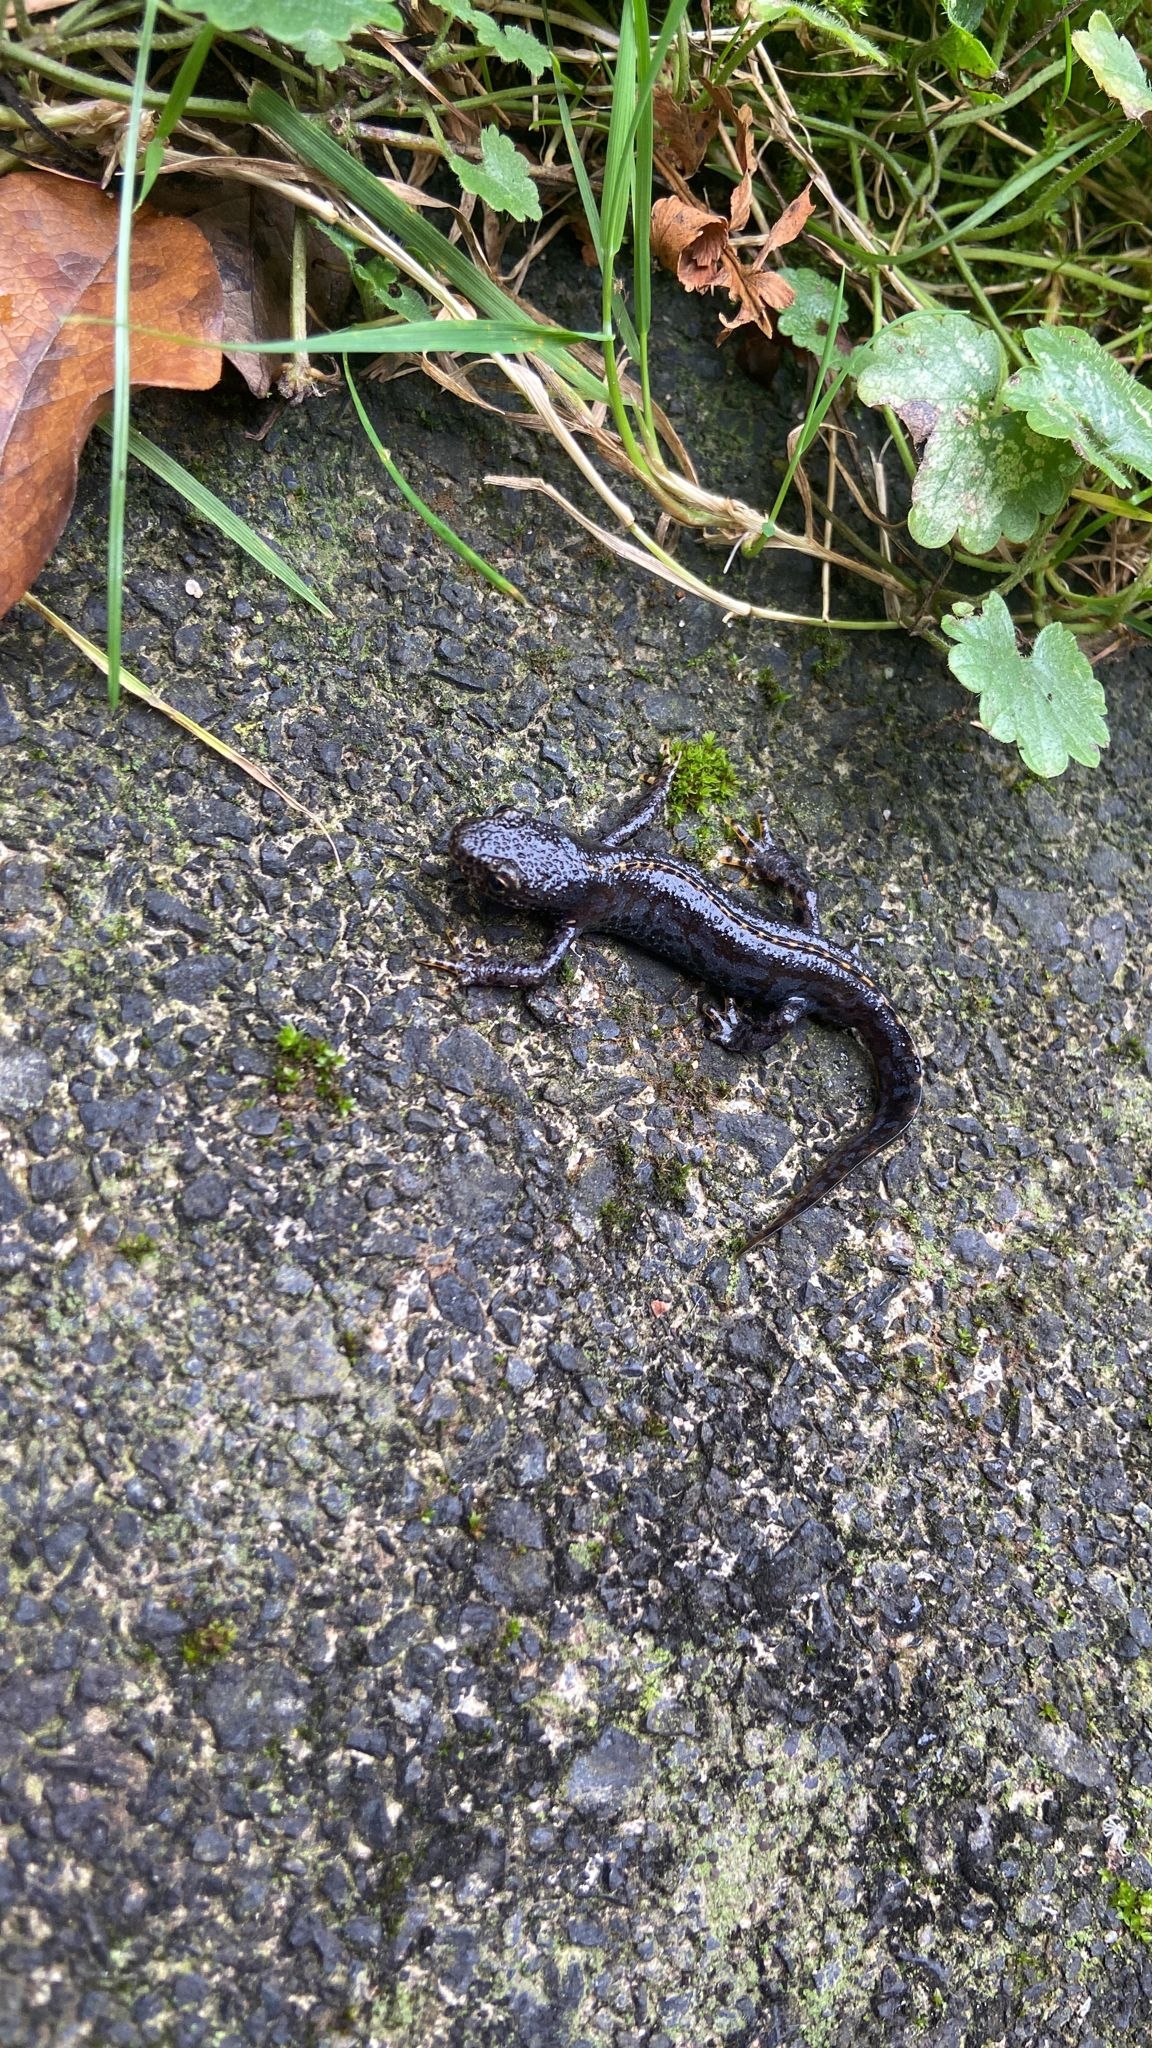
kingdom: Animalia
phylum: Chordata
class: Amphibia
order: Caudata
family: Salamandridae
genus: Ichthyosaura
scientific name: Ichthyosaura alpestris
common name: Alpine newt
